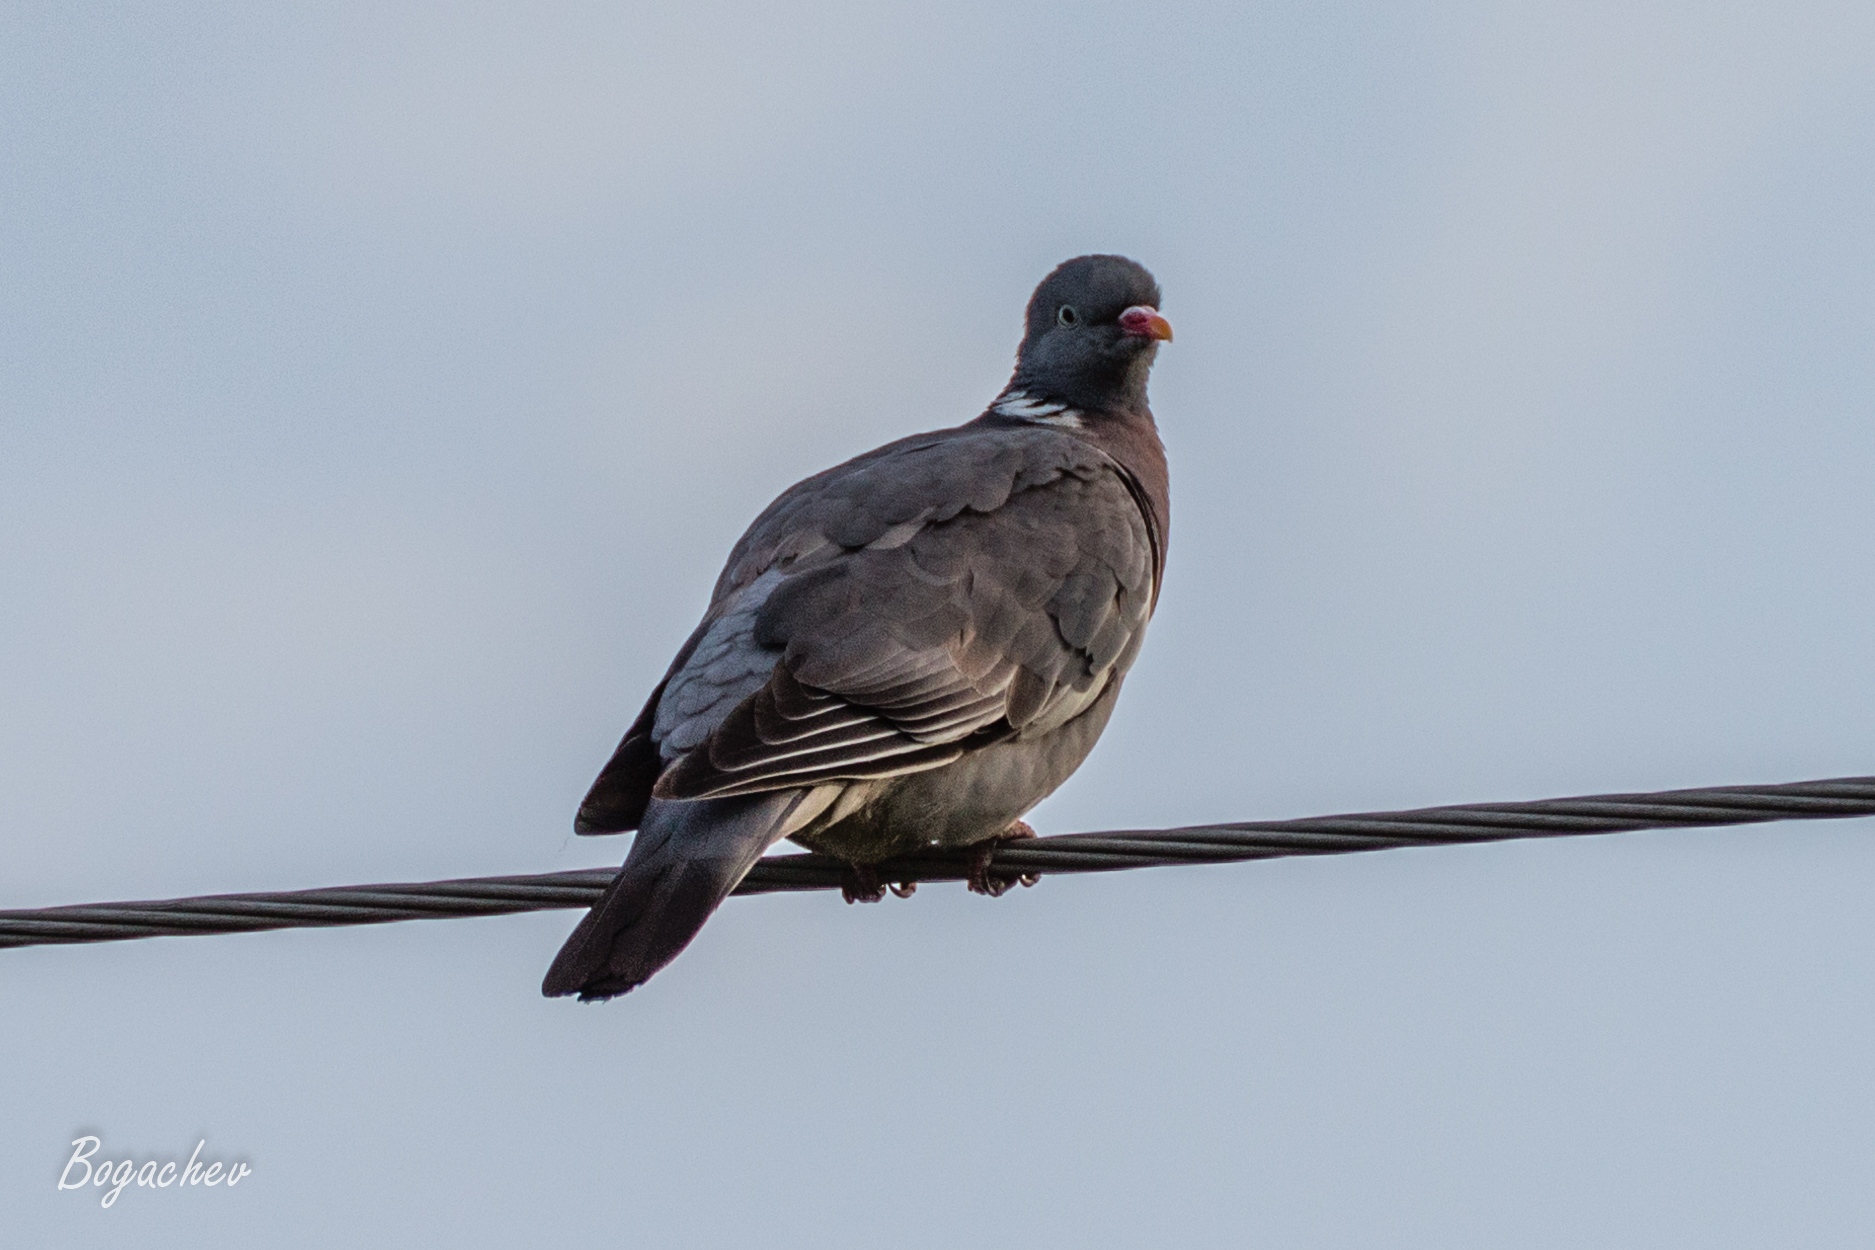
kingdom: Animalia
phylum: Chordata
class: Aves
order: Columbiformes
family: Columbidae
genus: Columba
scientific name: Columba palumbus
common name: Common wood pigeon
